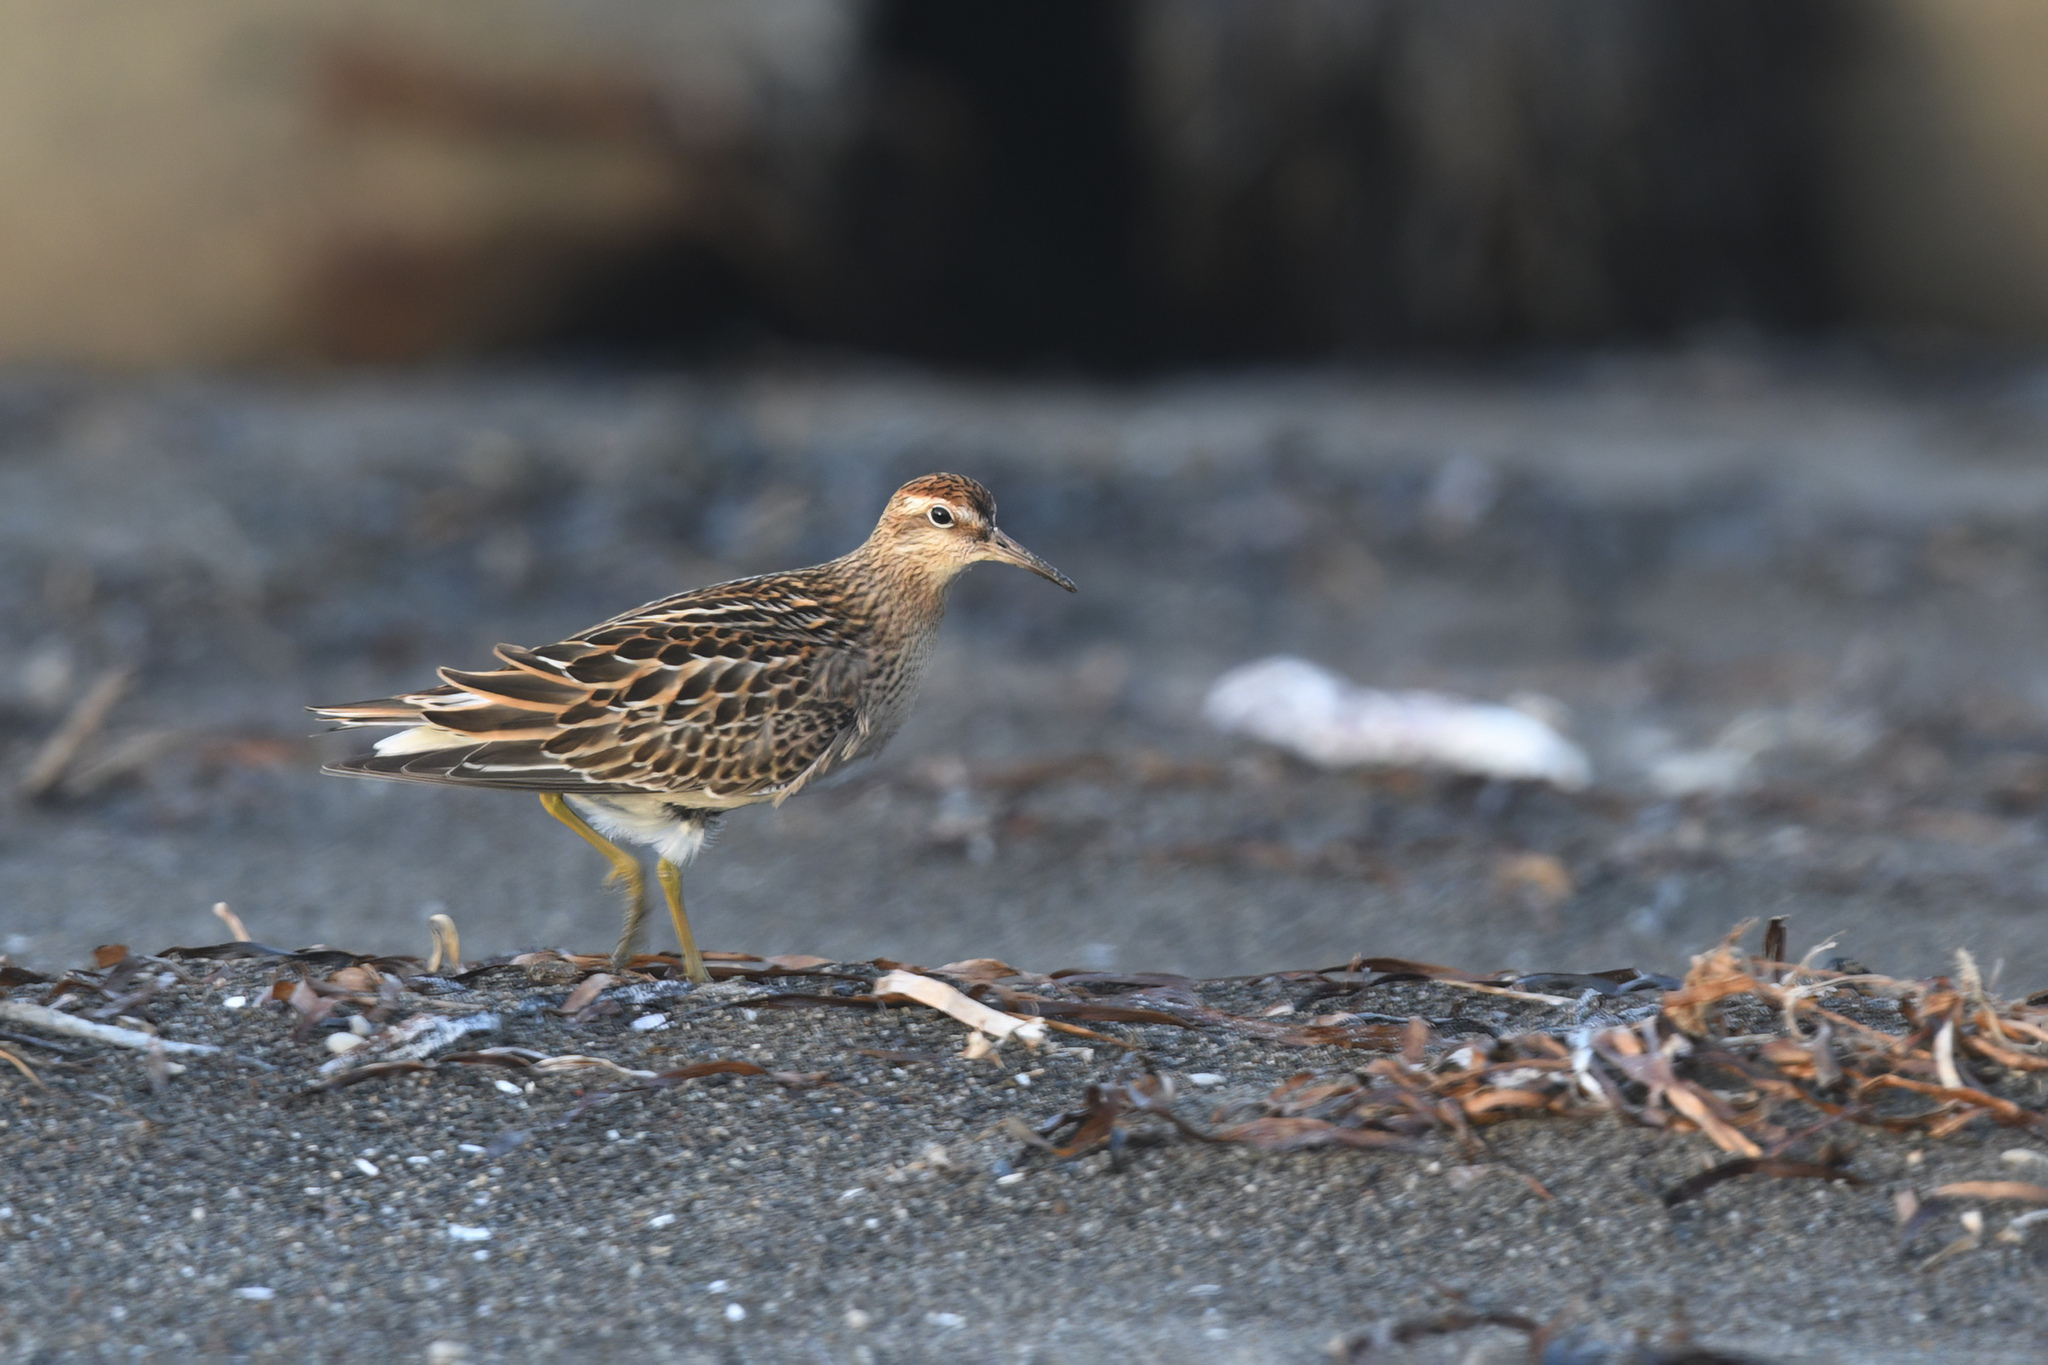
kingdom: Animalia
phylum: Chordata
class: Aves
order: Charadriiformes
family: Scolopacidae
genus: Calidris
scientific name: Calidris acuminata
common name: Sharp-tailed sandpiper
